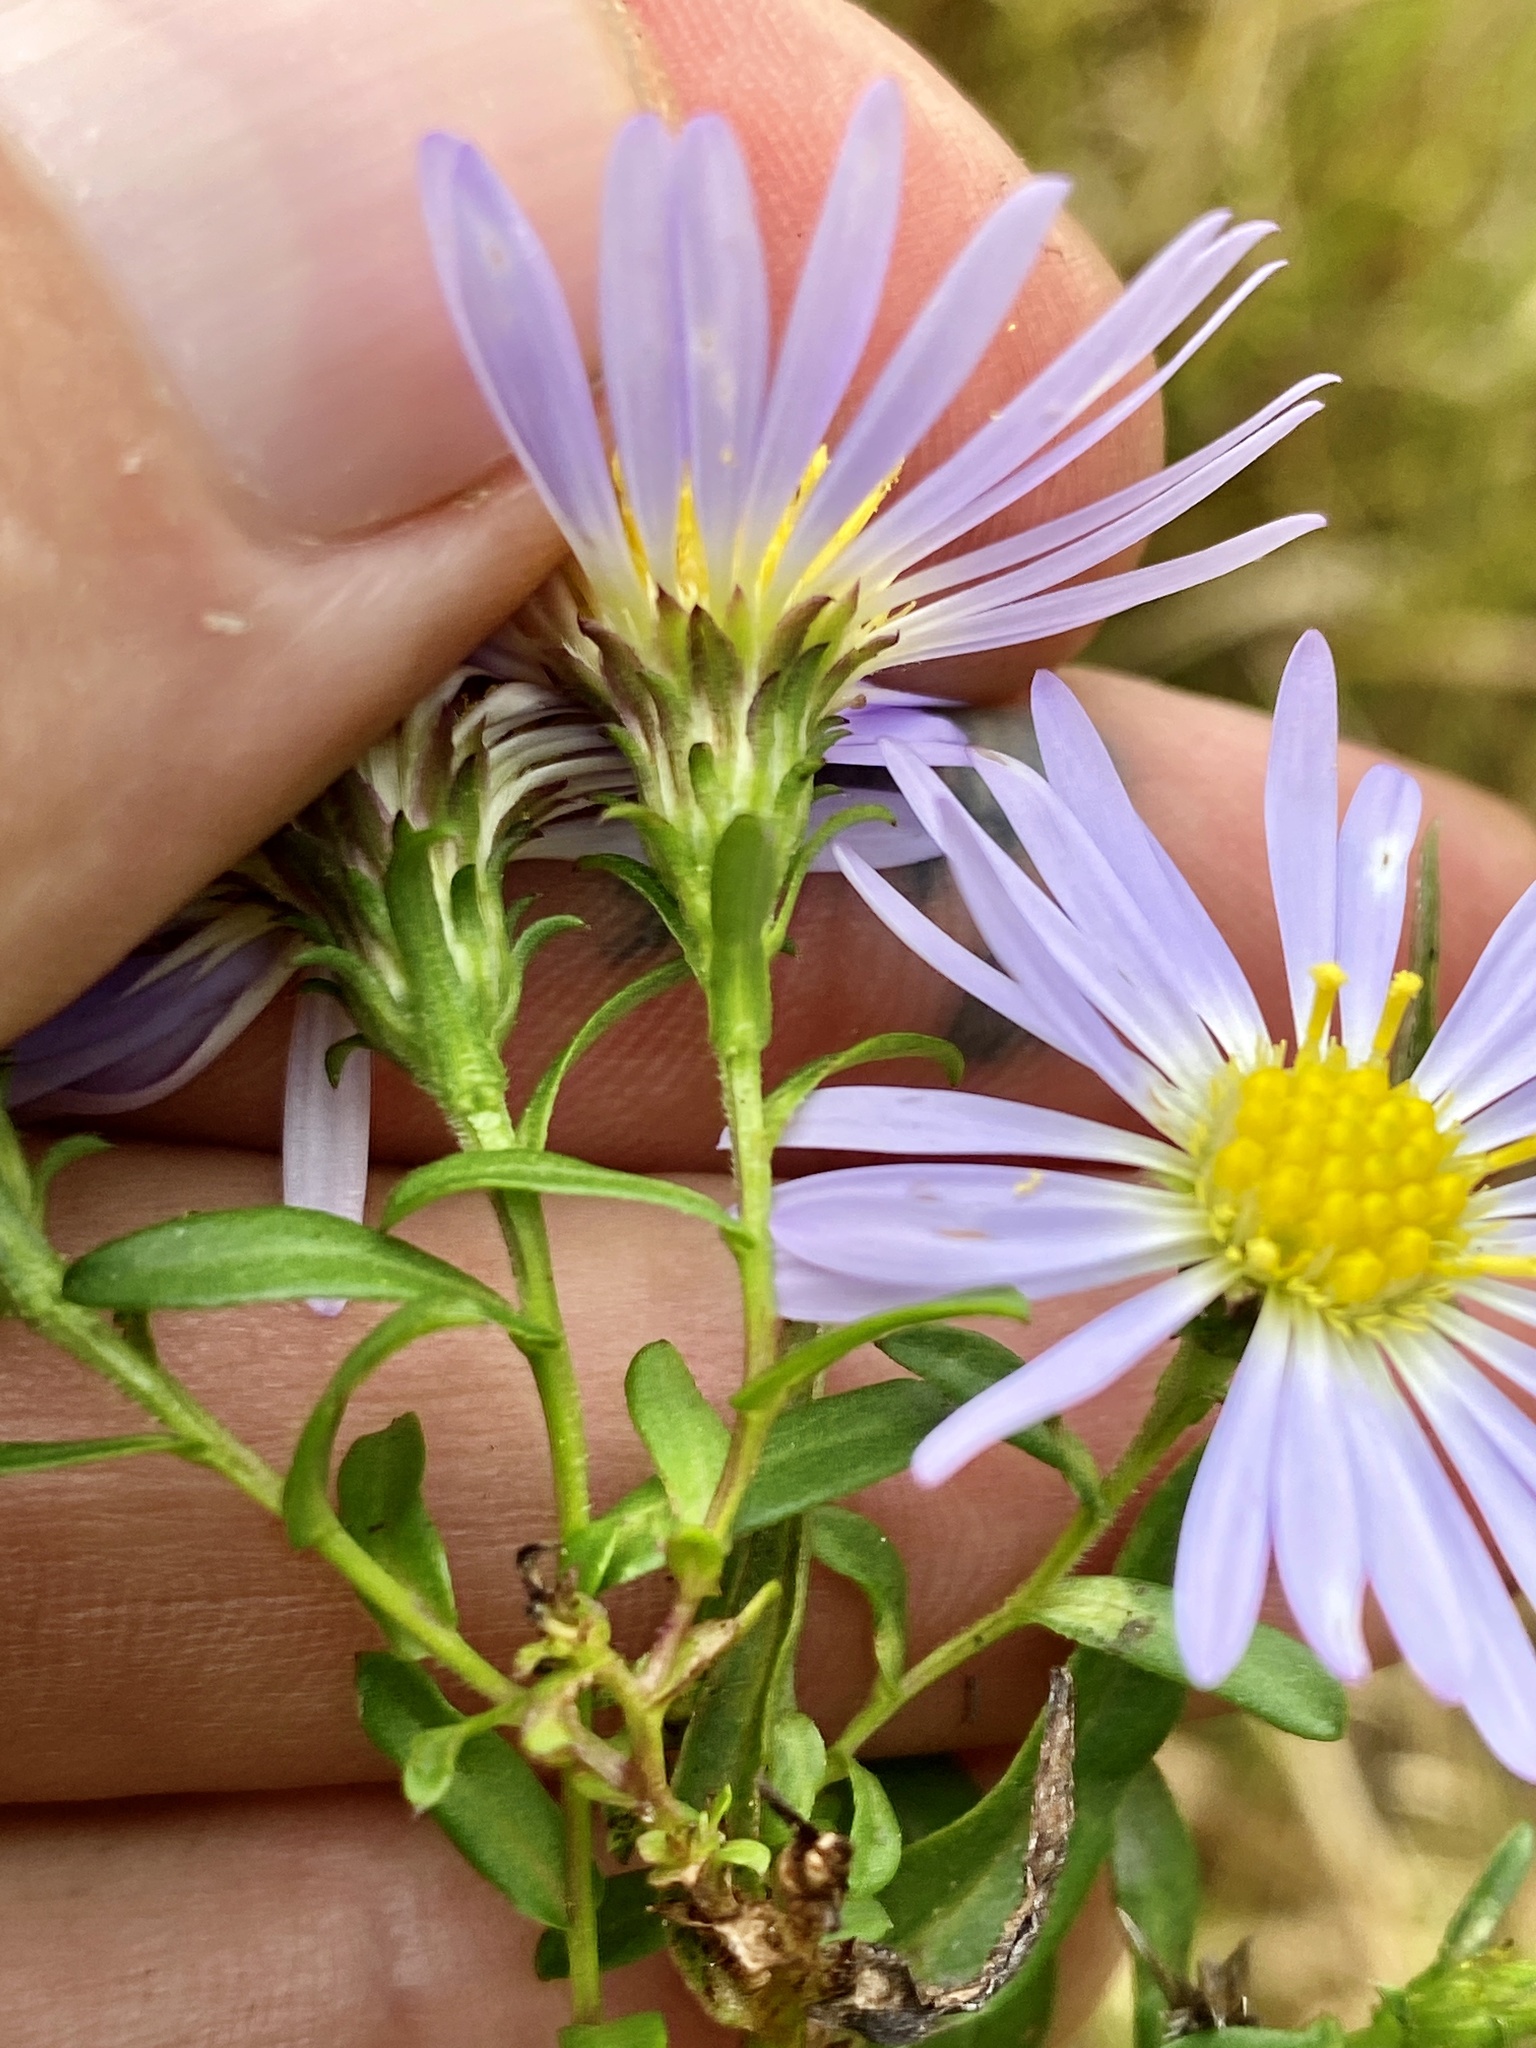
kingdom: Plantae
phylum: Tracheophyta
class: Magnoliopsida
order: Asterales
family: Asteraceae
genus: Symphyotrichum
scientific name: Symphyotrichum novi-belgii
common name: Michaelmas daisy
